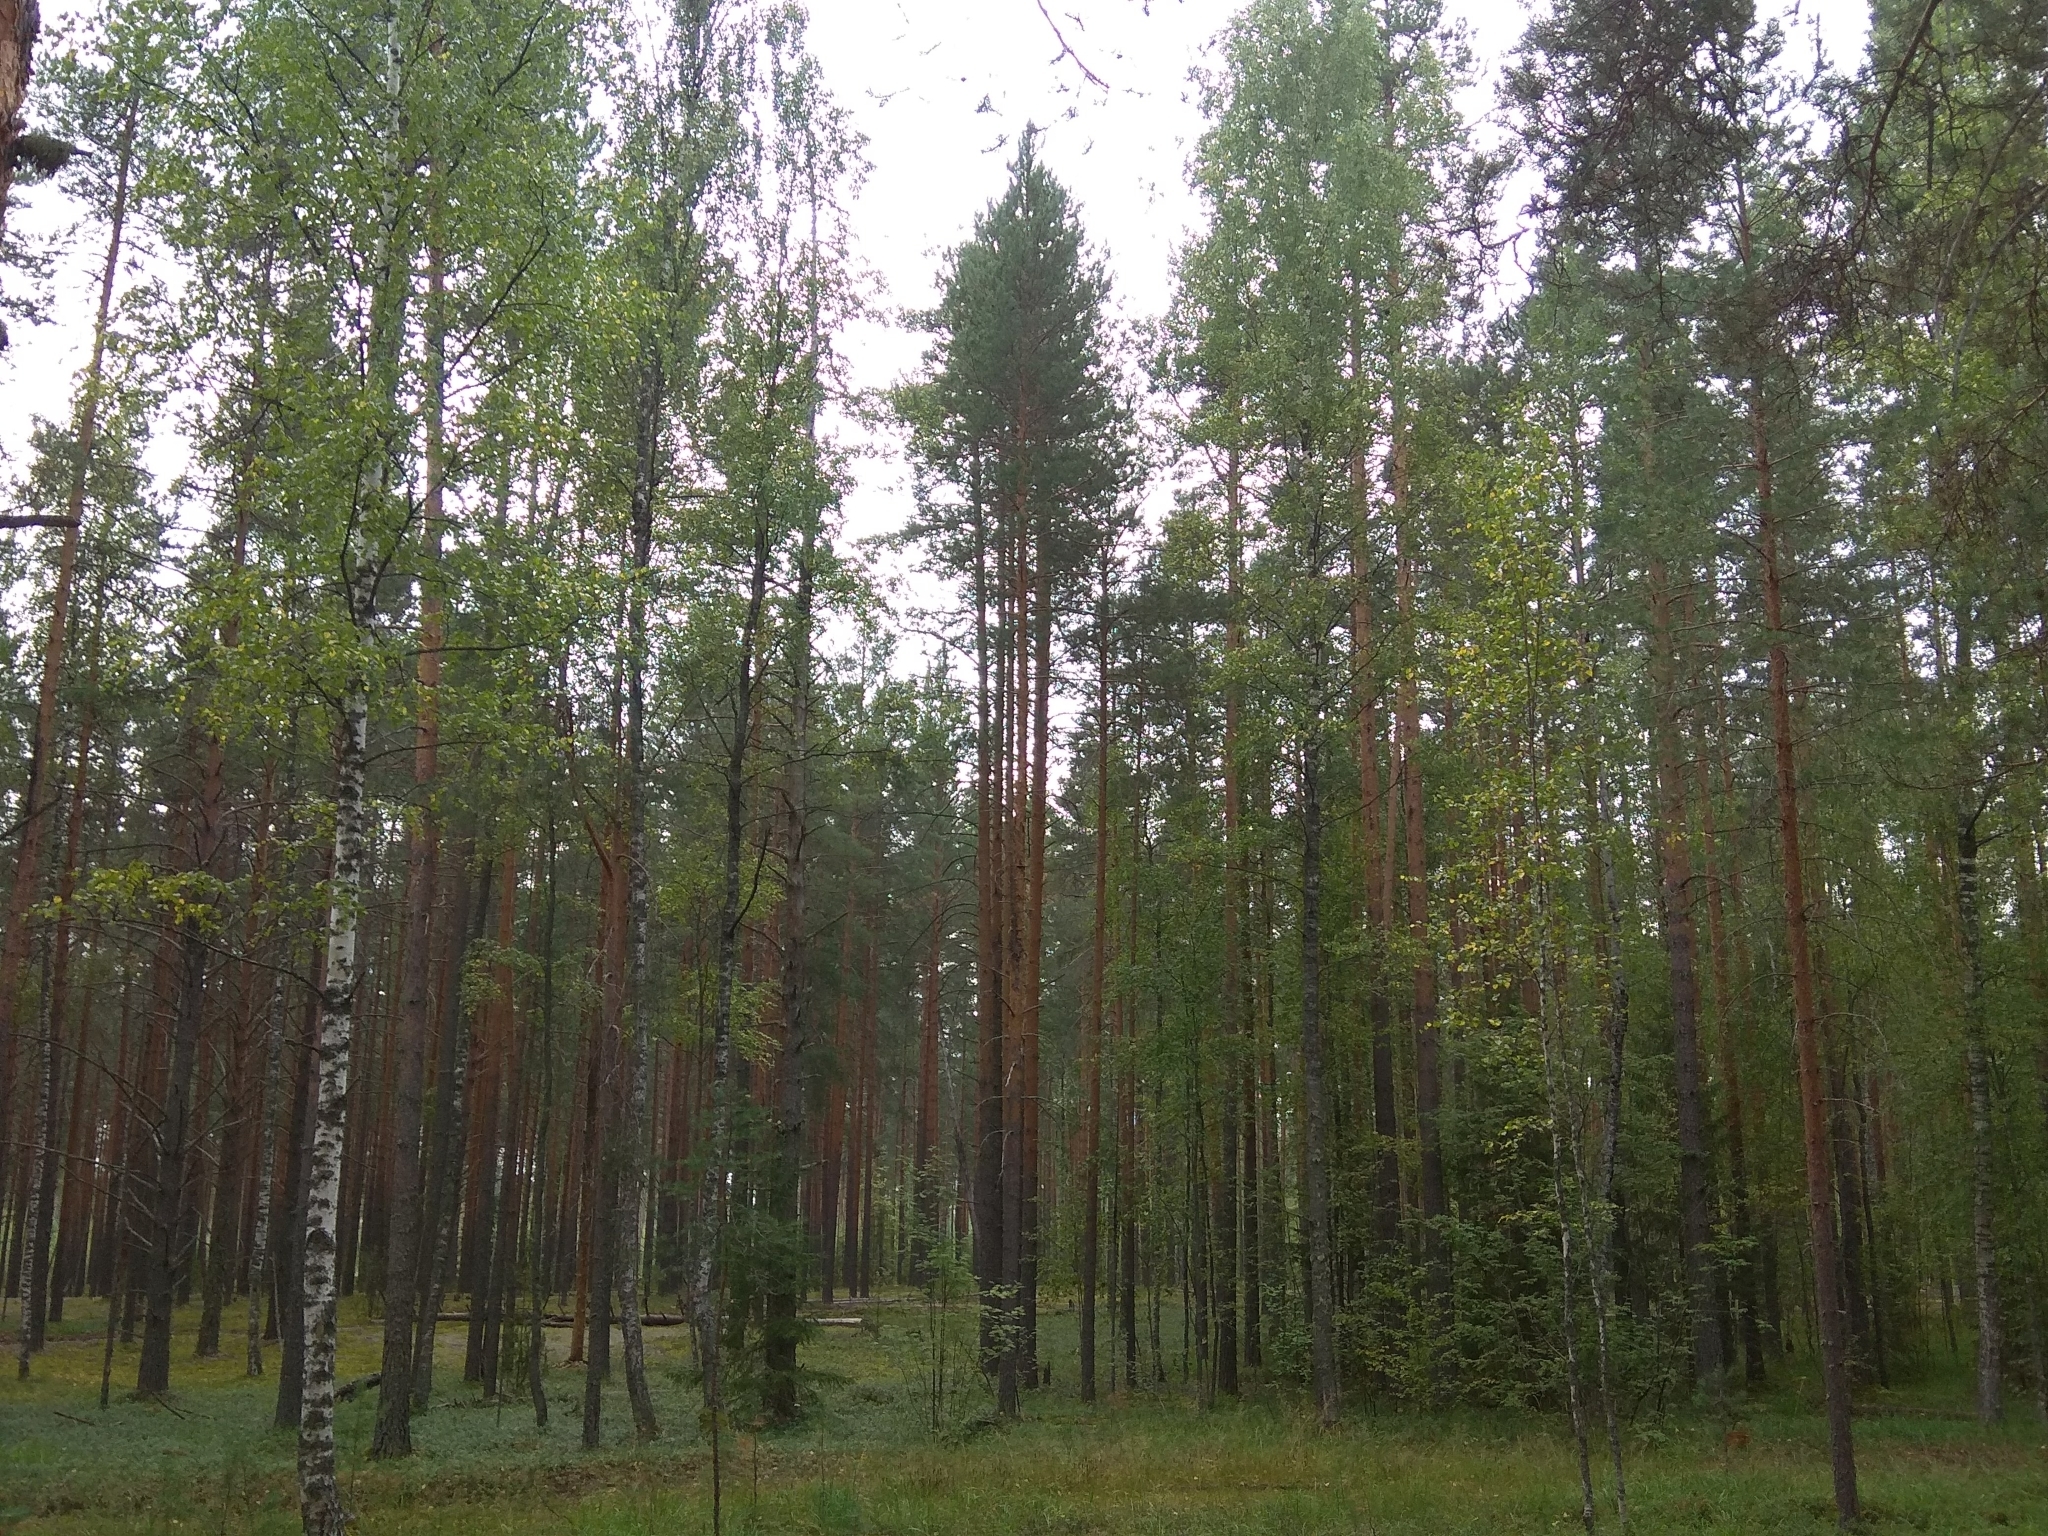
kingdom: Plantae
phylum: Tracheophyta
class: Pinopsida
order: Pinales
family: Pinaceae
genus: Pinus
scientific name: Pinus sylvestris
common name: Scots pine
